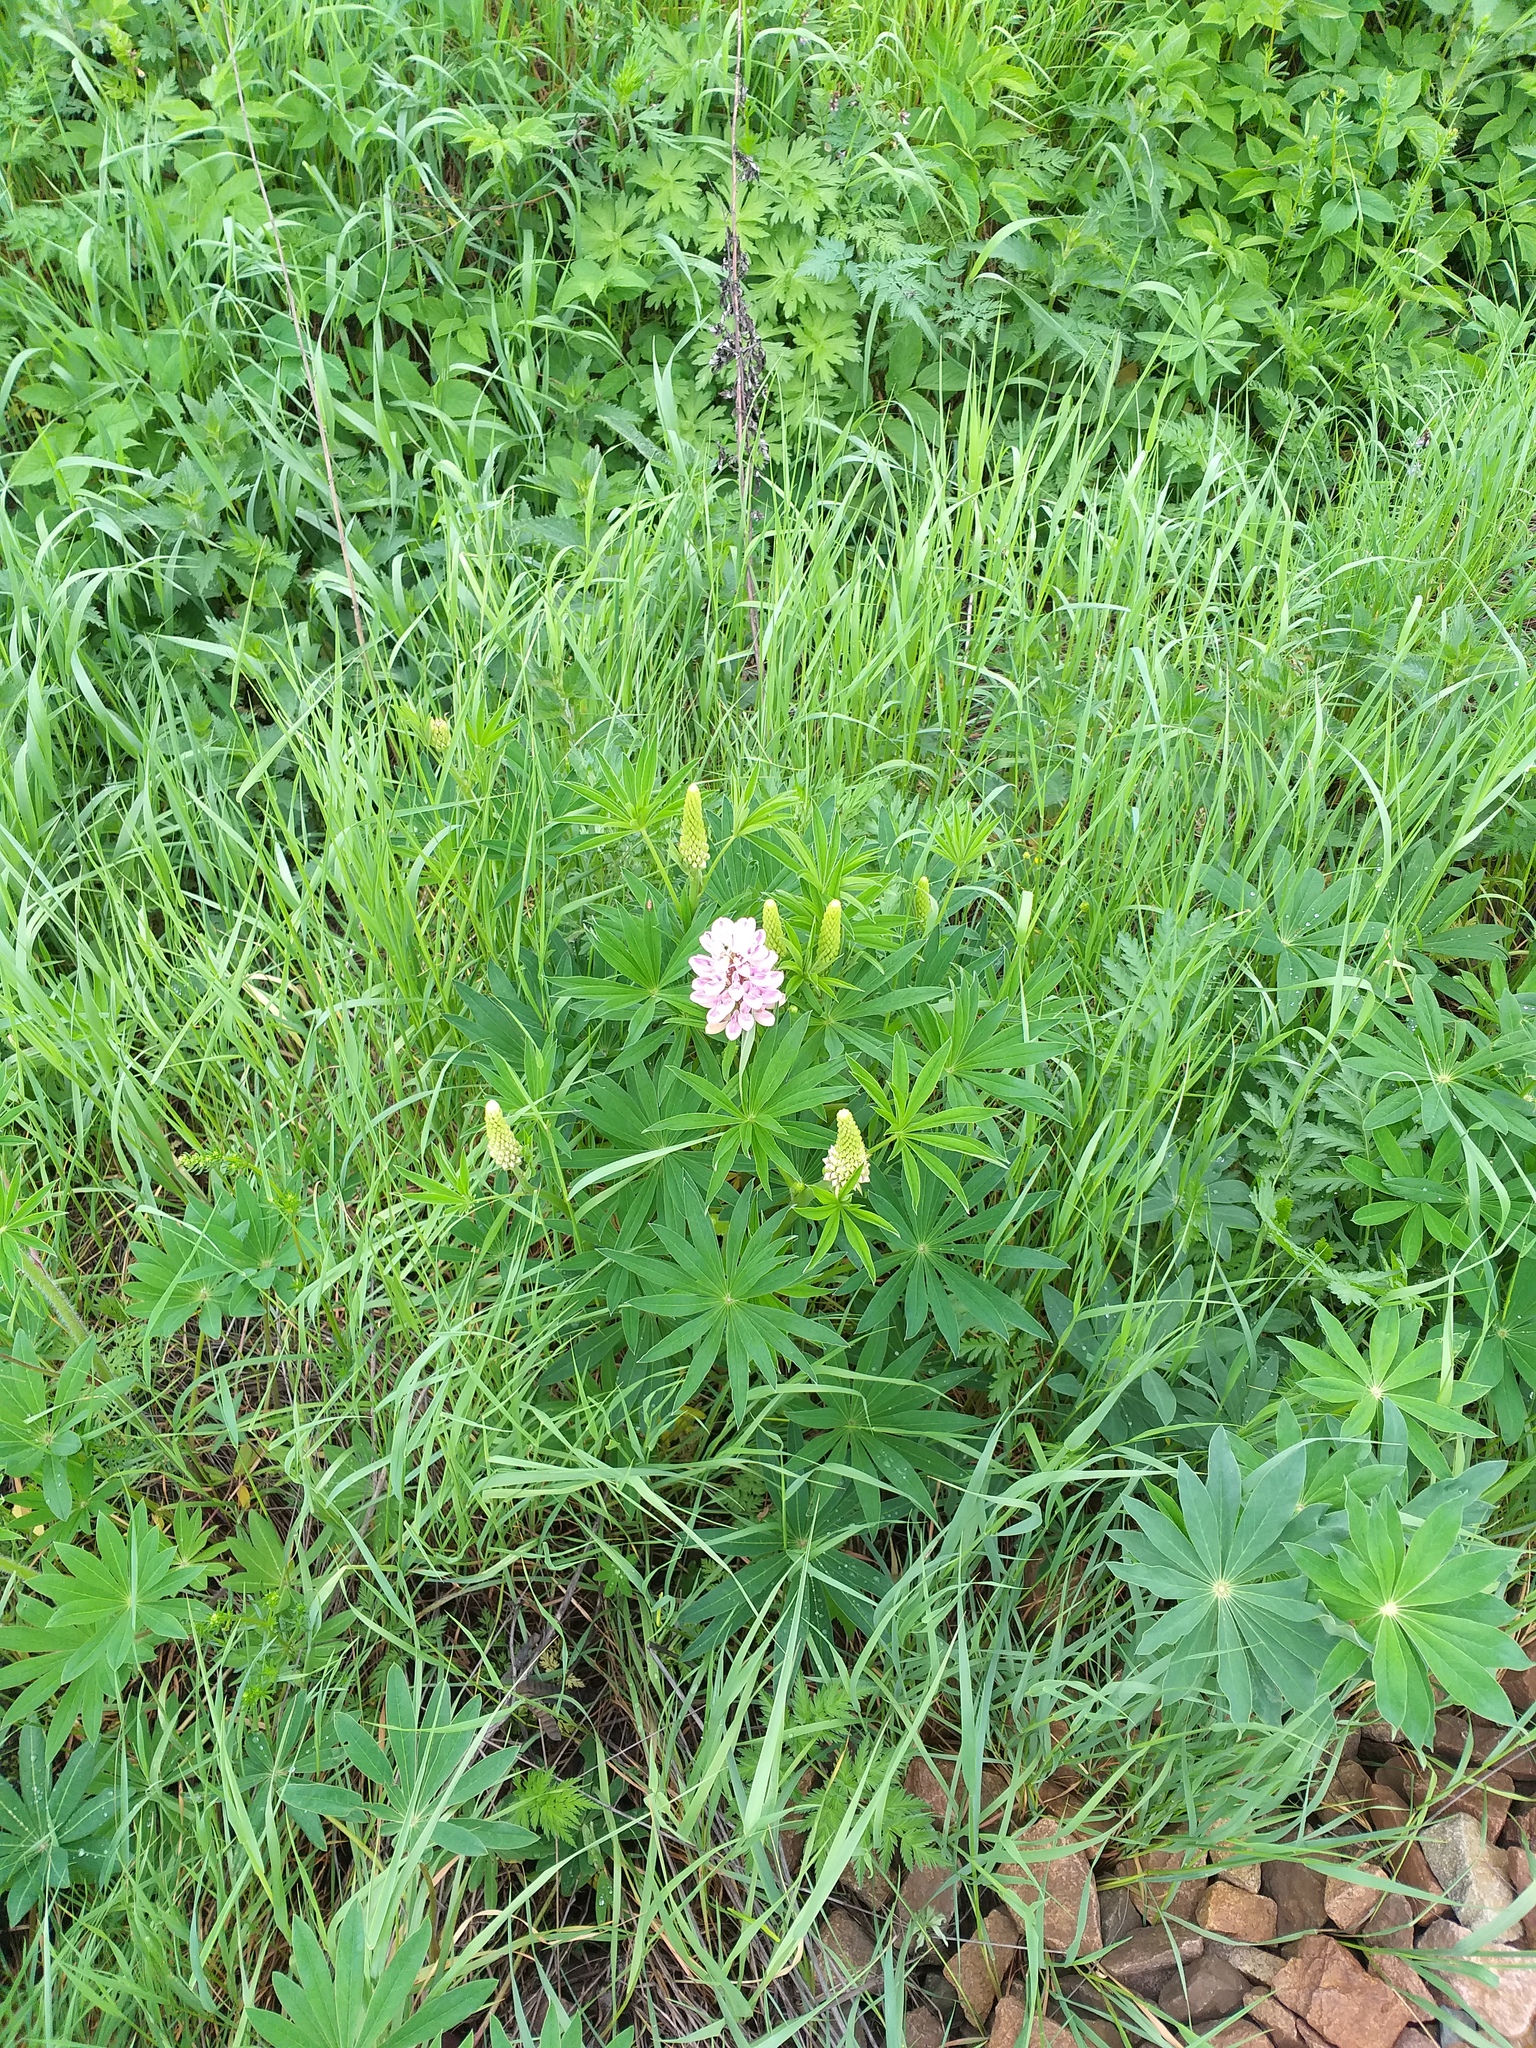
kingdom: Plantae
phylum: Tracheophyta
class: Magnoliopsida
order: Fabales
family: Fabaceae
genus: Lupinus
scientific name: Lupinus polyphyllus
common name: Garden lupin
